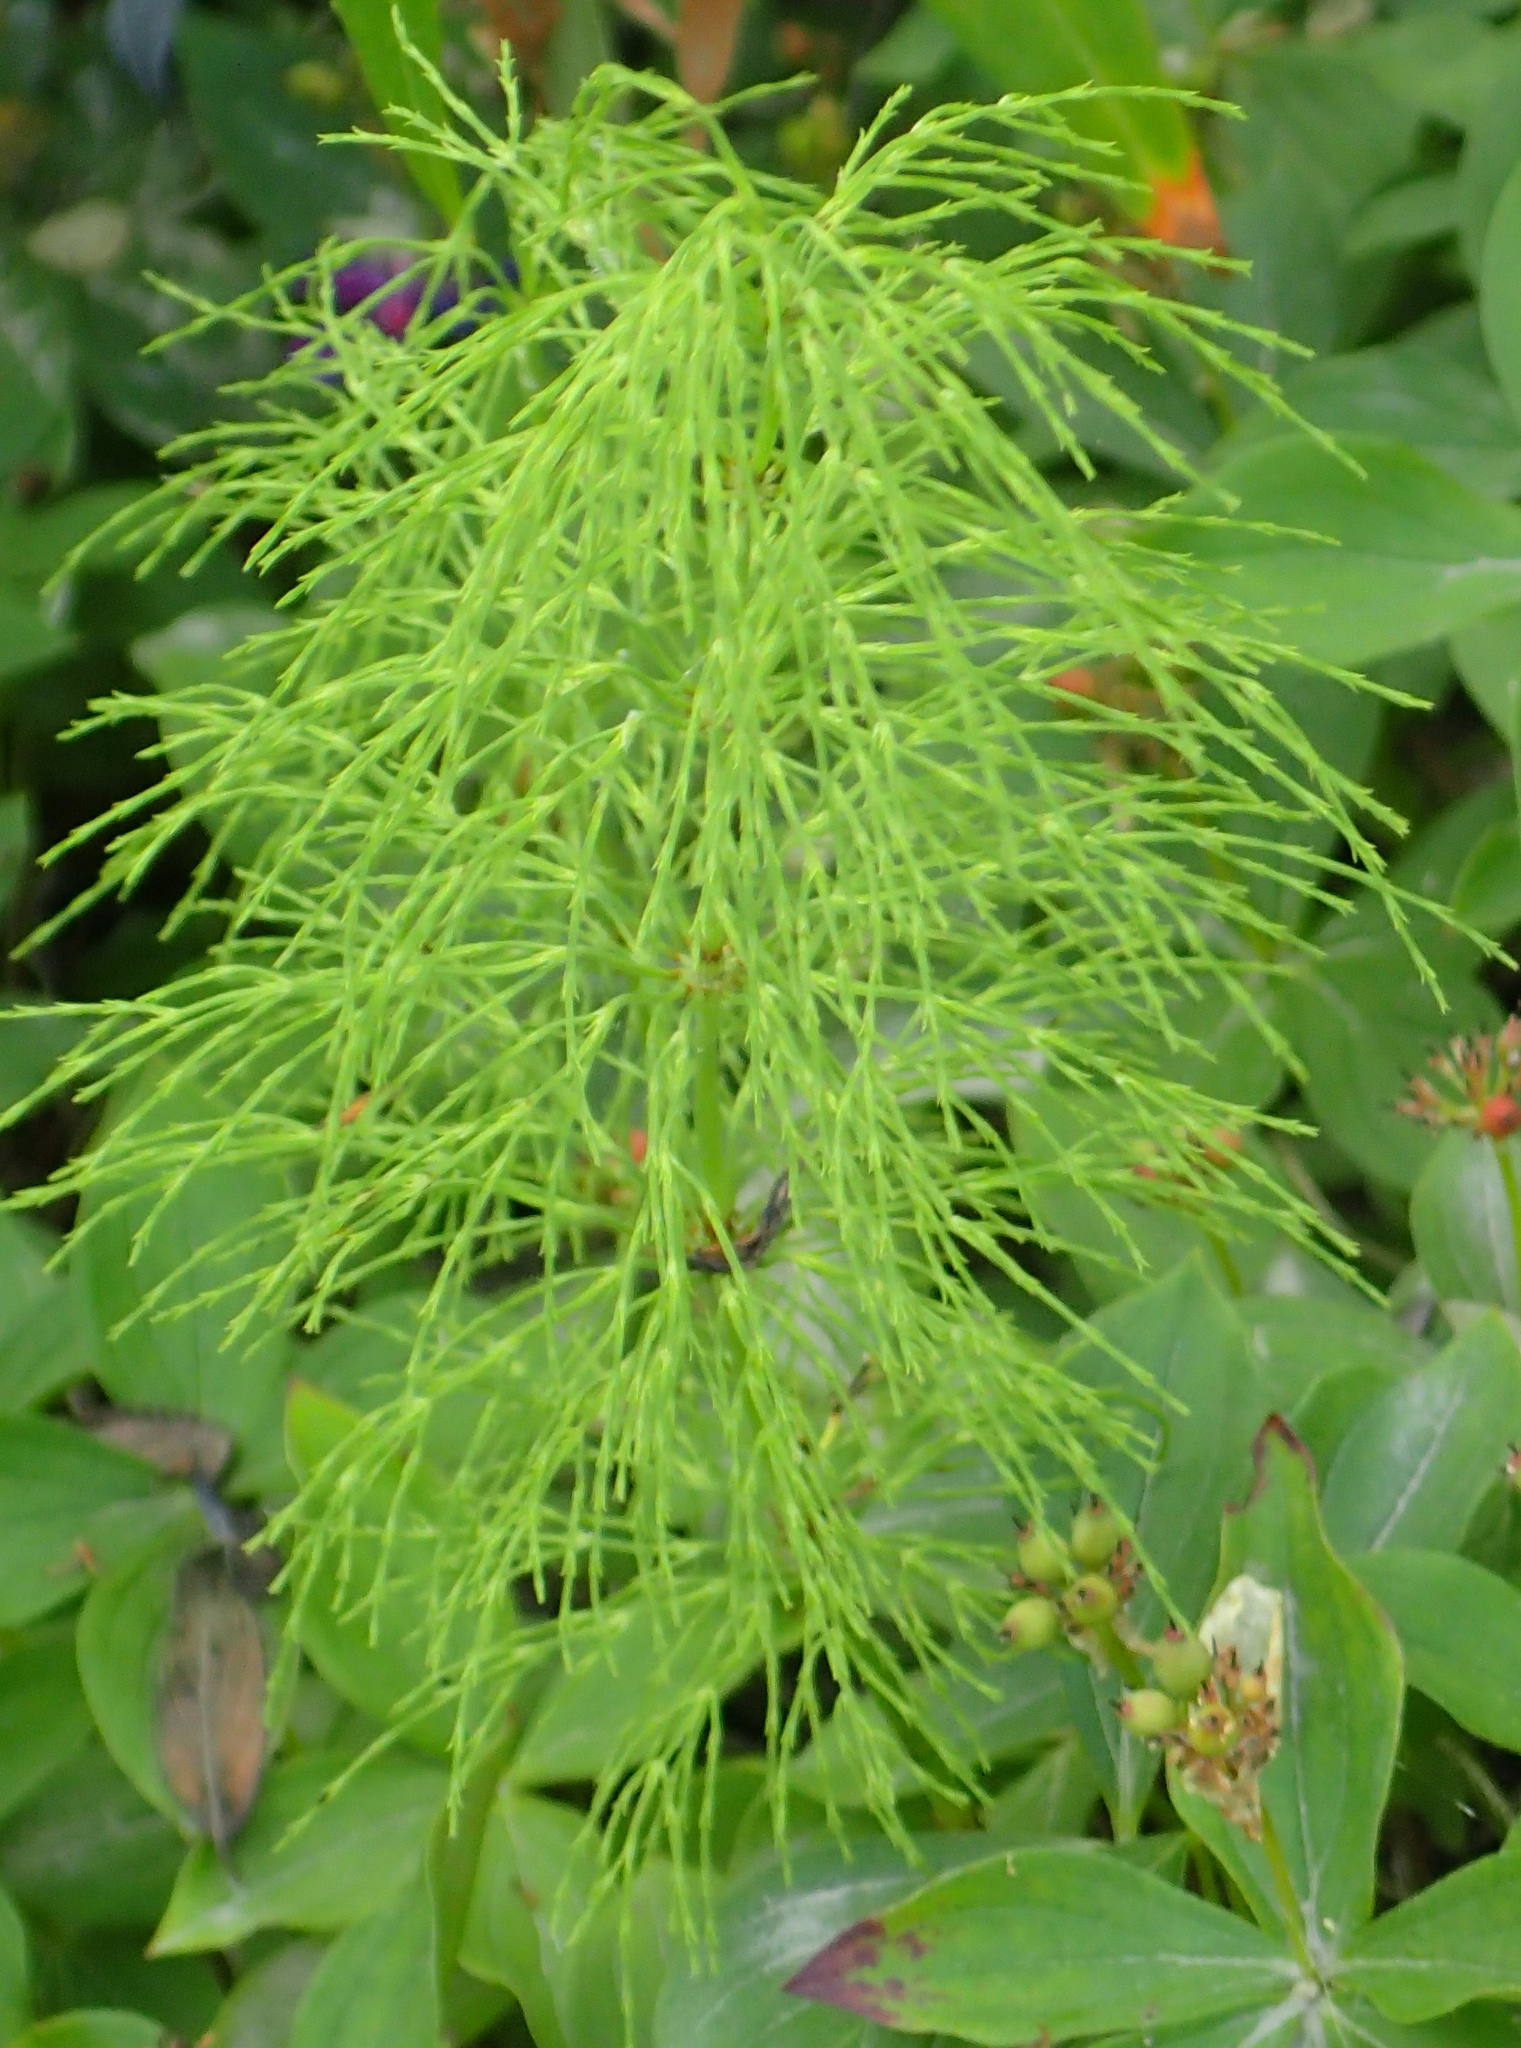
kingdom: Plantae
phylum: Tracheophyta
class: Polypodiopsida
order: Equisetales
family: Equisetaceae
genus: Equisetum
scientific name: Equisetum sylvaticum
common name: Wood horsetail
